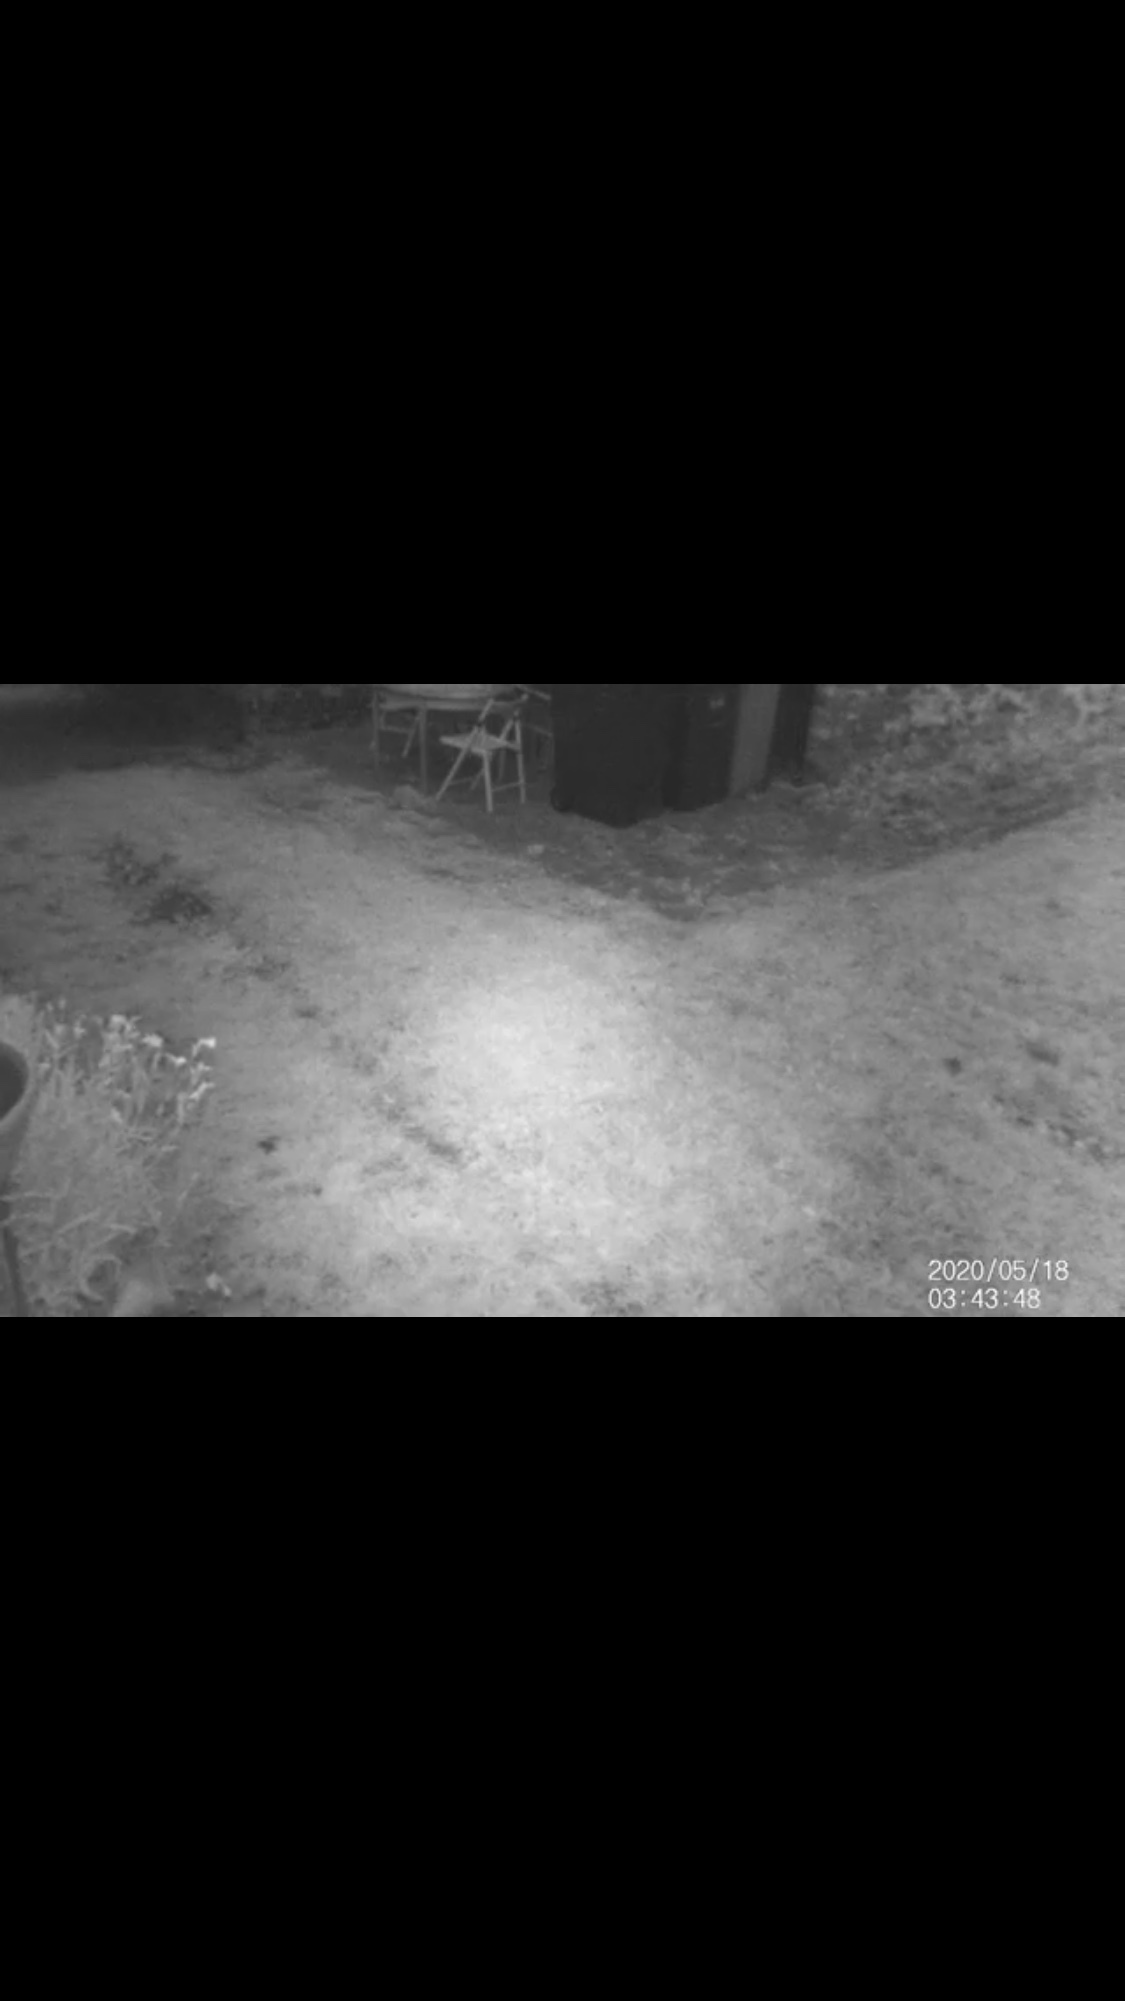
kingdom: Animalia
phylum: Chordata
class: Mammalia
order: Carnivora
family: Canidae
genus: Vulpes
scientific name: Vulpes vulpes
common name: Red fox
